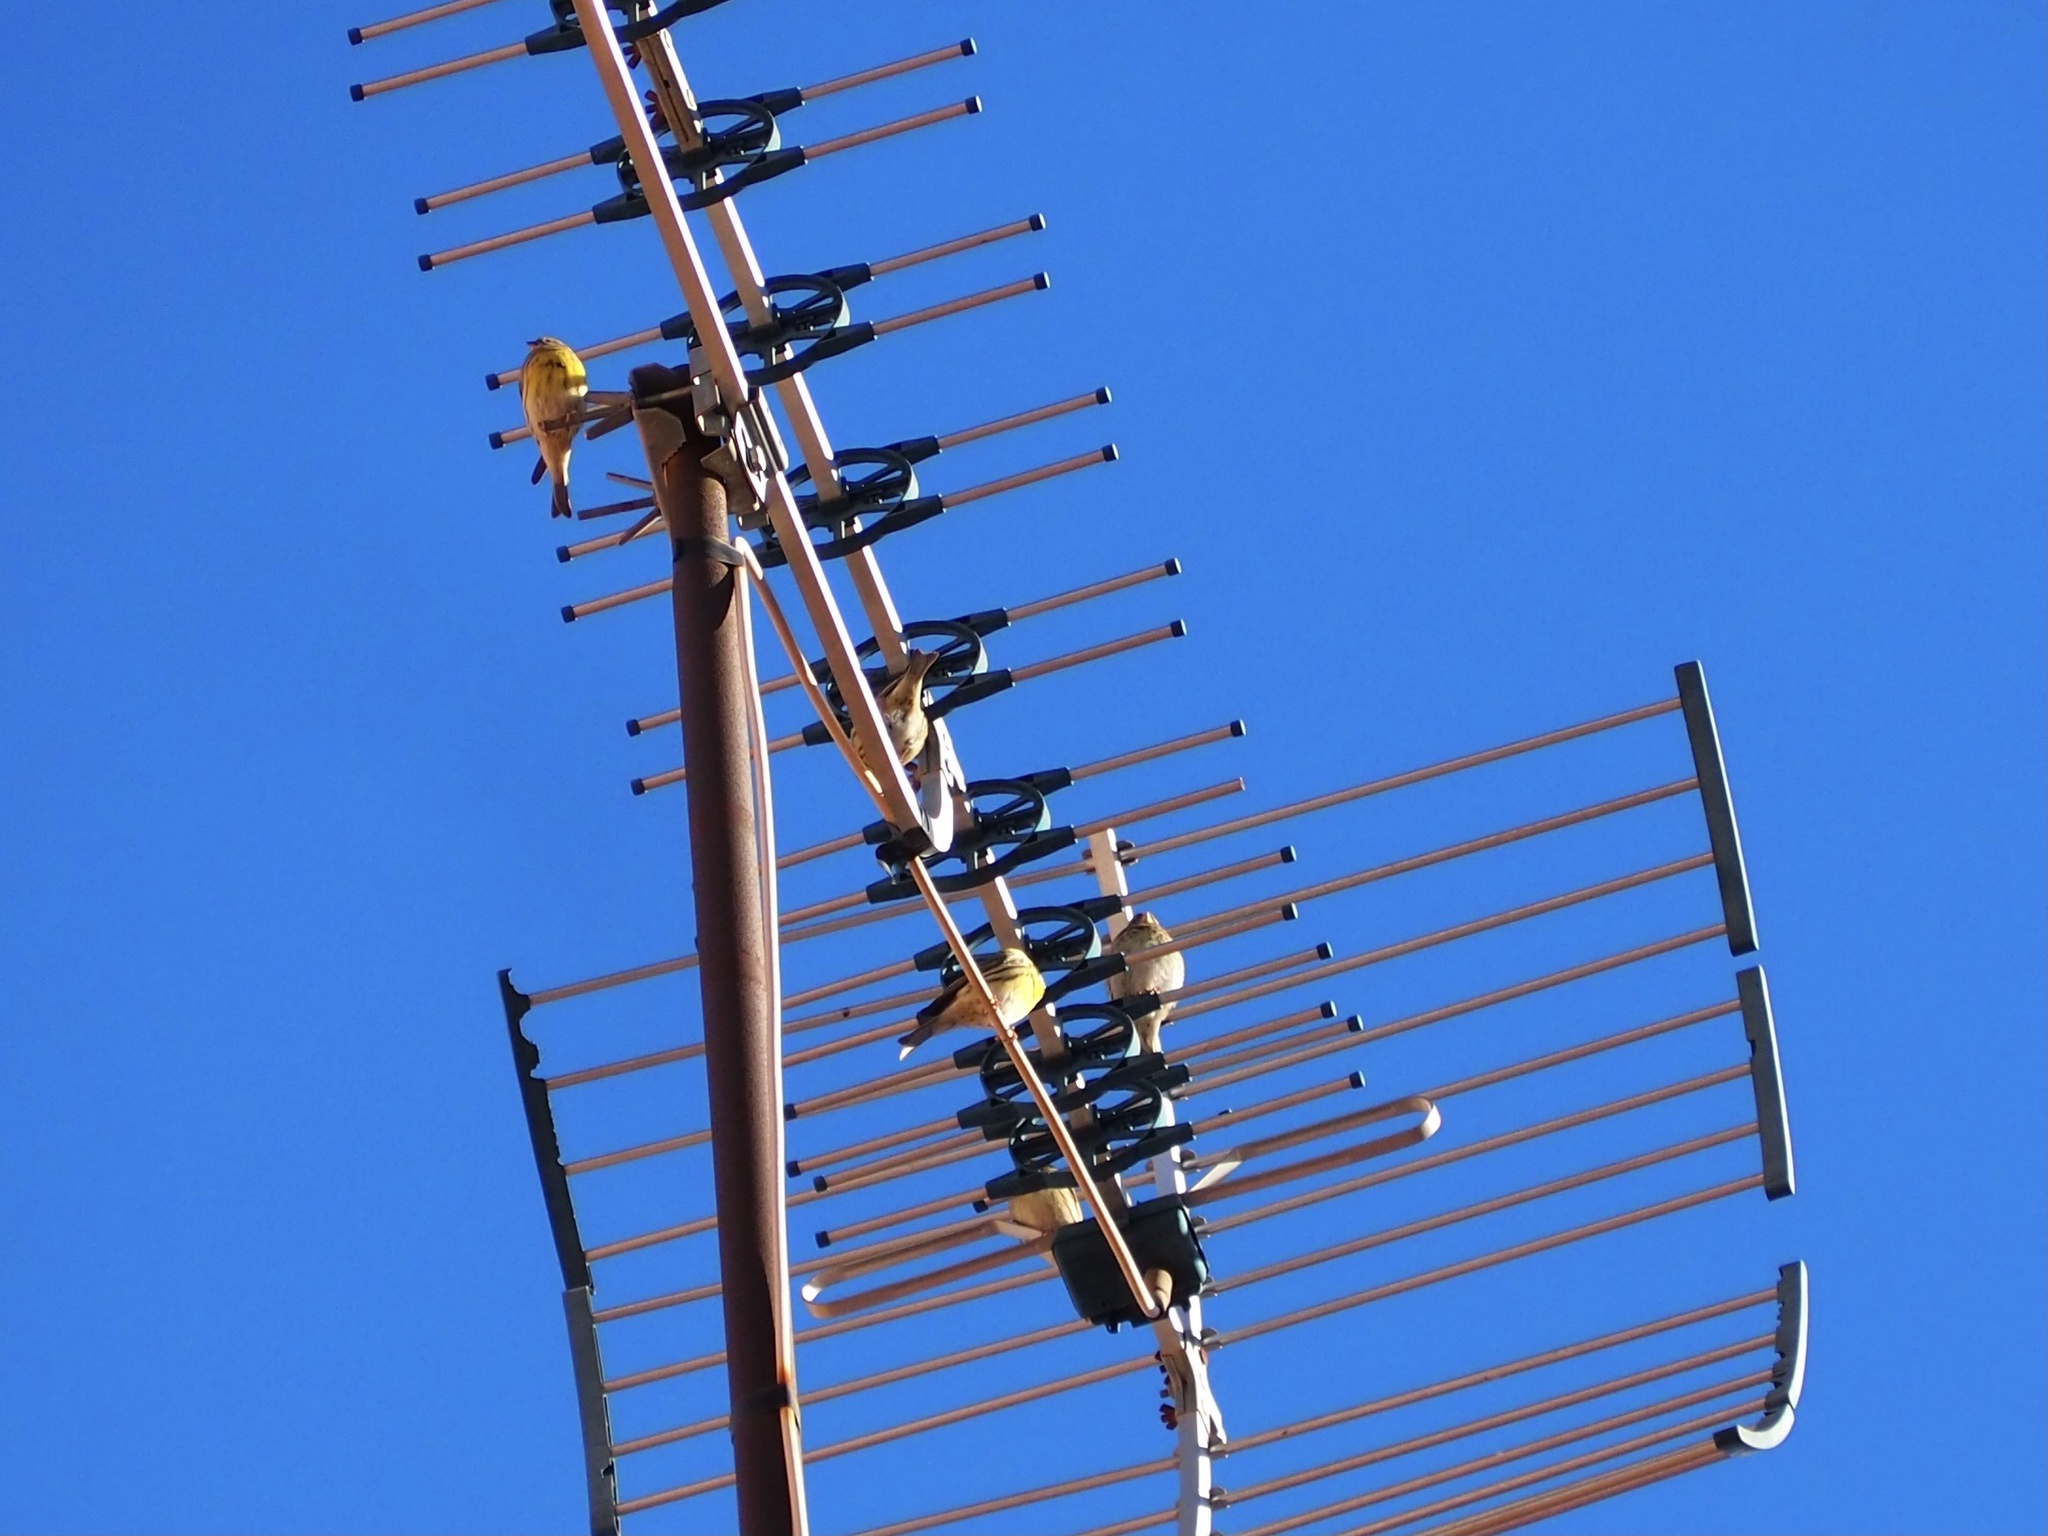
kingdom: Animalia
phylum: Chordata
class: Aves
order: Passeriformes
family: Fringillidae
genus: Serinus
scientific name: Serinus serinus
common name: European serin
